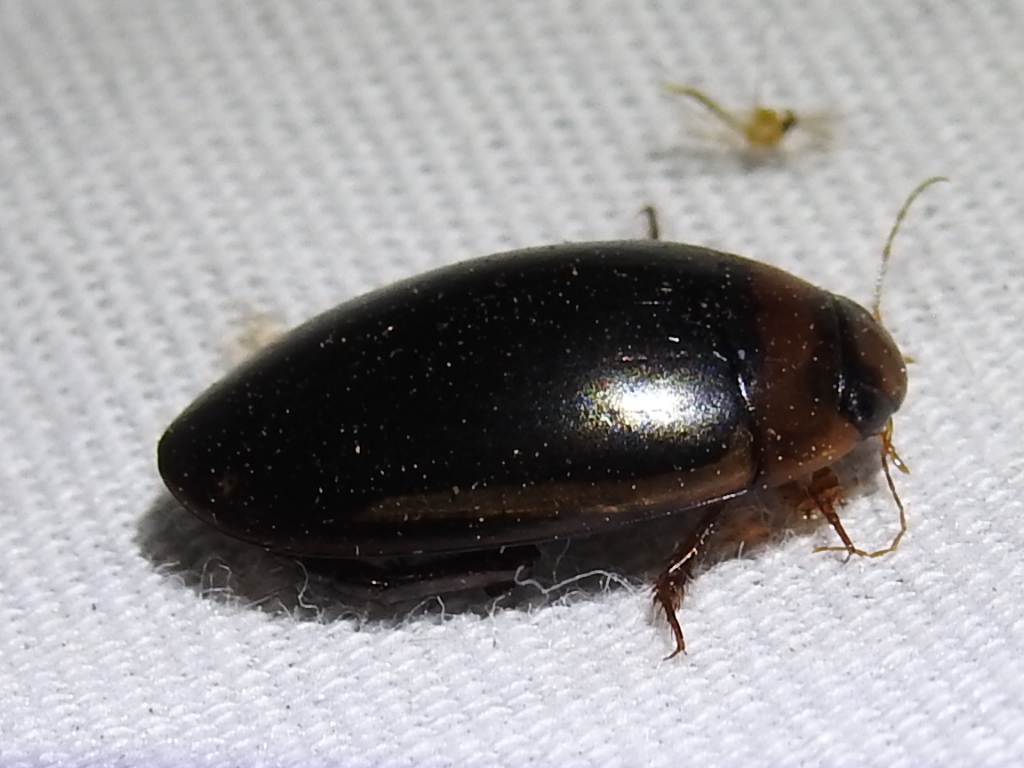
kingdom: Animalia
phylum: Arthropoda
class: Insecta
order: Coleoptera
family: Dytiscidae
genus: Hydaticus
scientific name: Hydaticus bimarginatus
